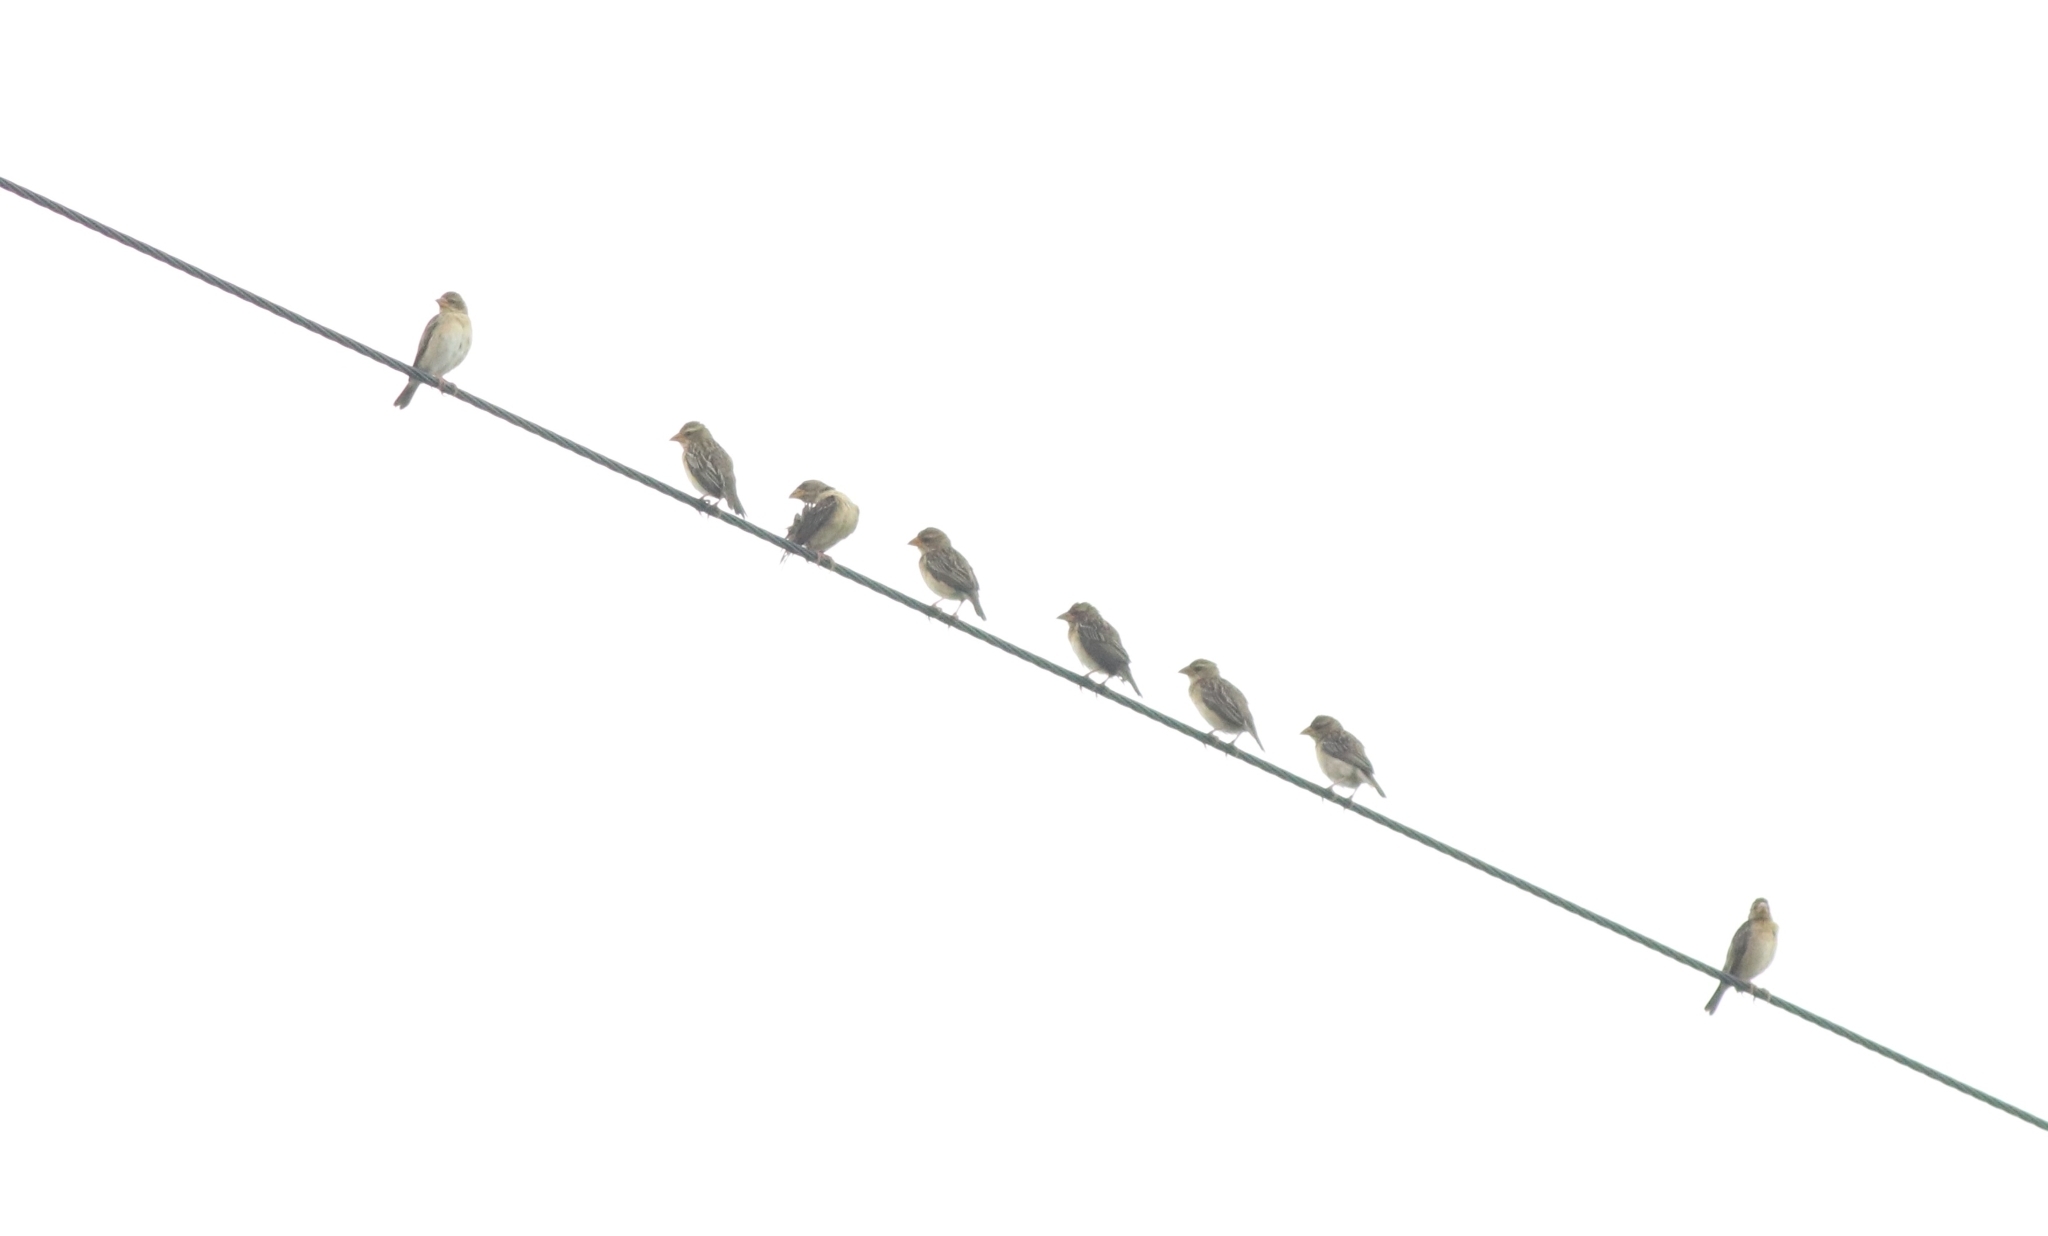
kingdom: Animalia
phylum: Chordata
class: Aves
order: Passeriformes
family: Ploceidae
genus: Ploceus
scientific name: Ploceus philippinus
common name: Baya weaver
